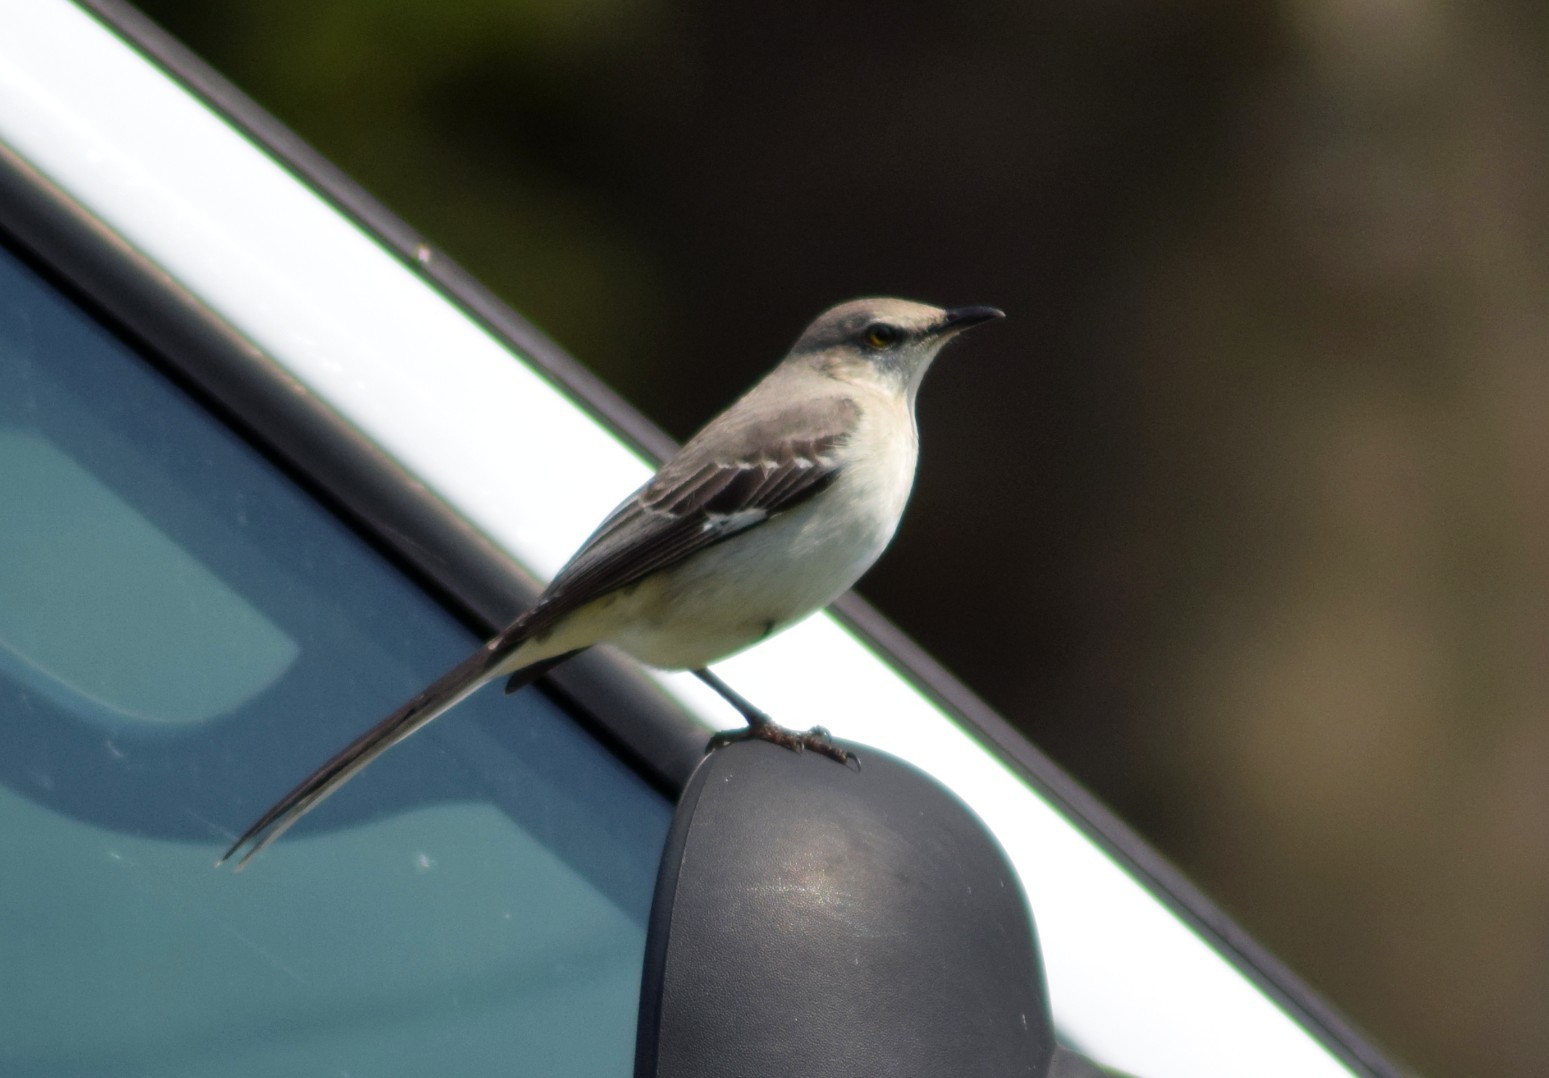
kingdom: Animalia
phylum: Chordata
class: Aves
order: Passeriformes
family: Mimidae
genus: Mimus
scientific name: Mimus polyglottos
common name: Northern mockingbird
